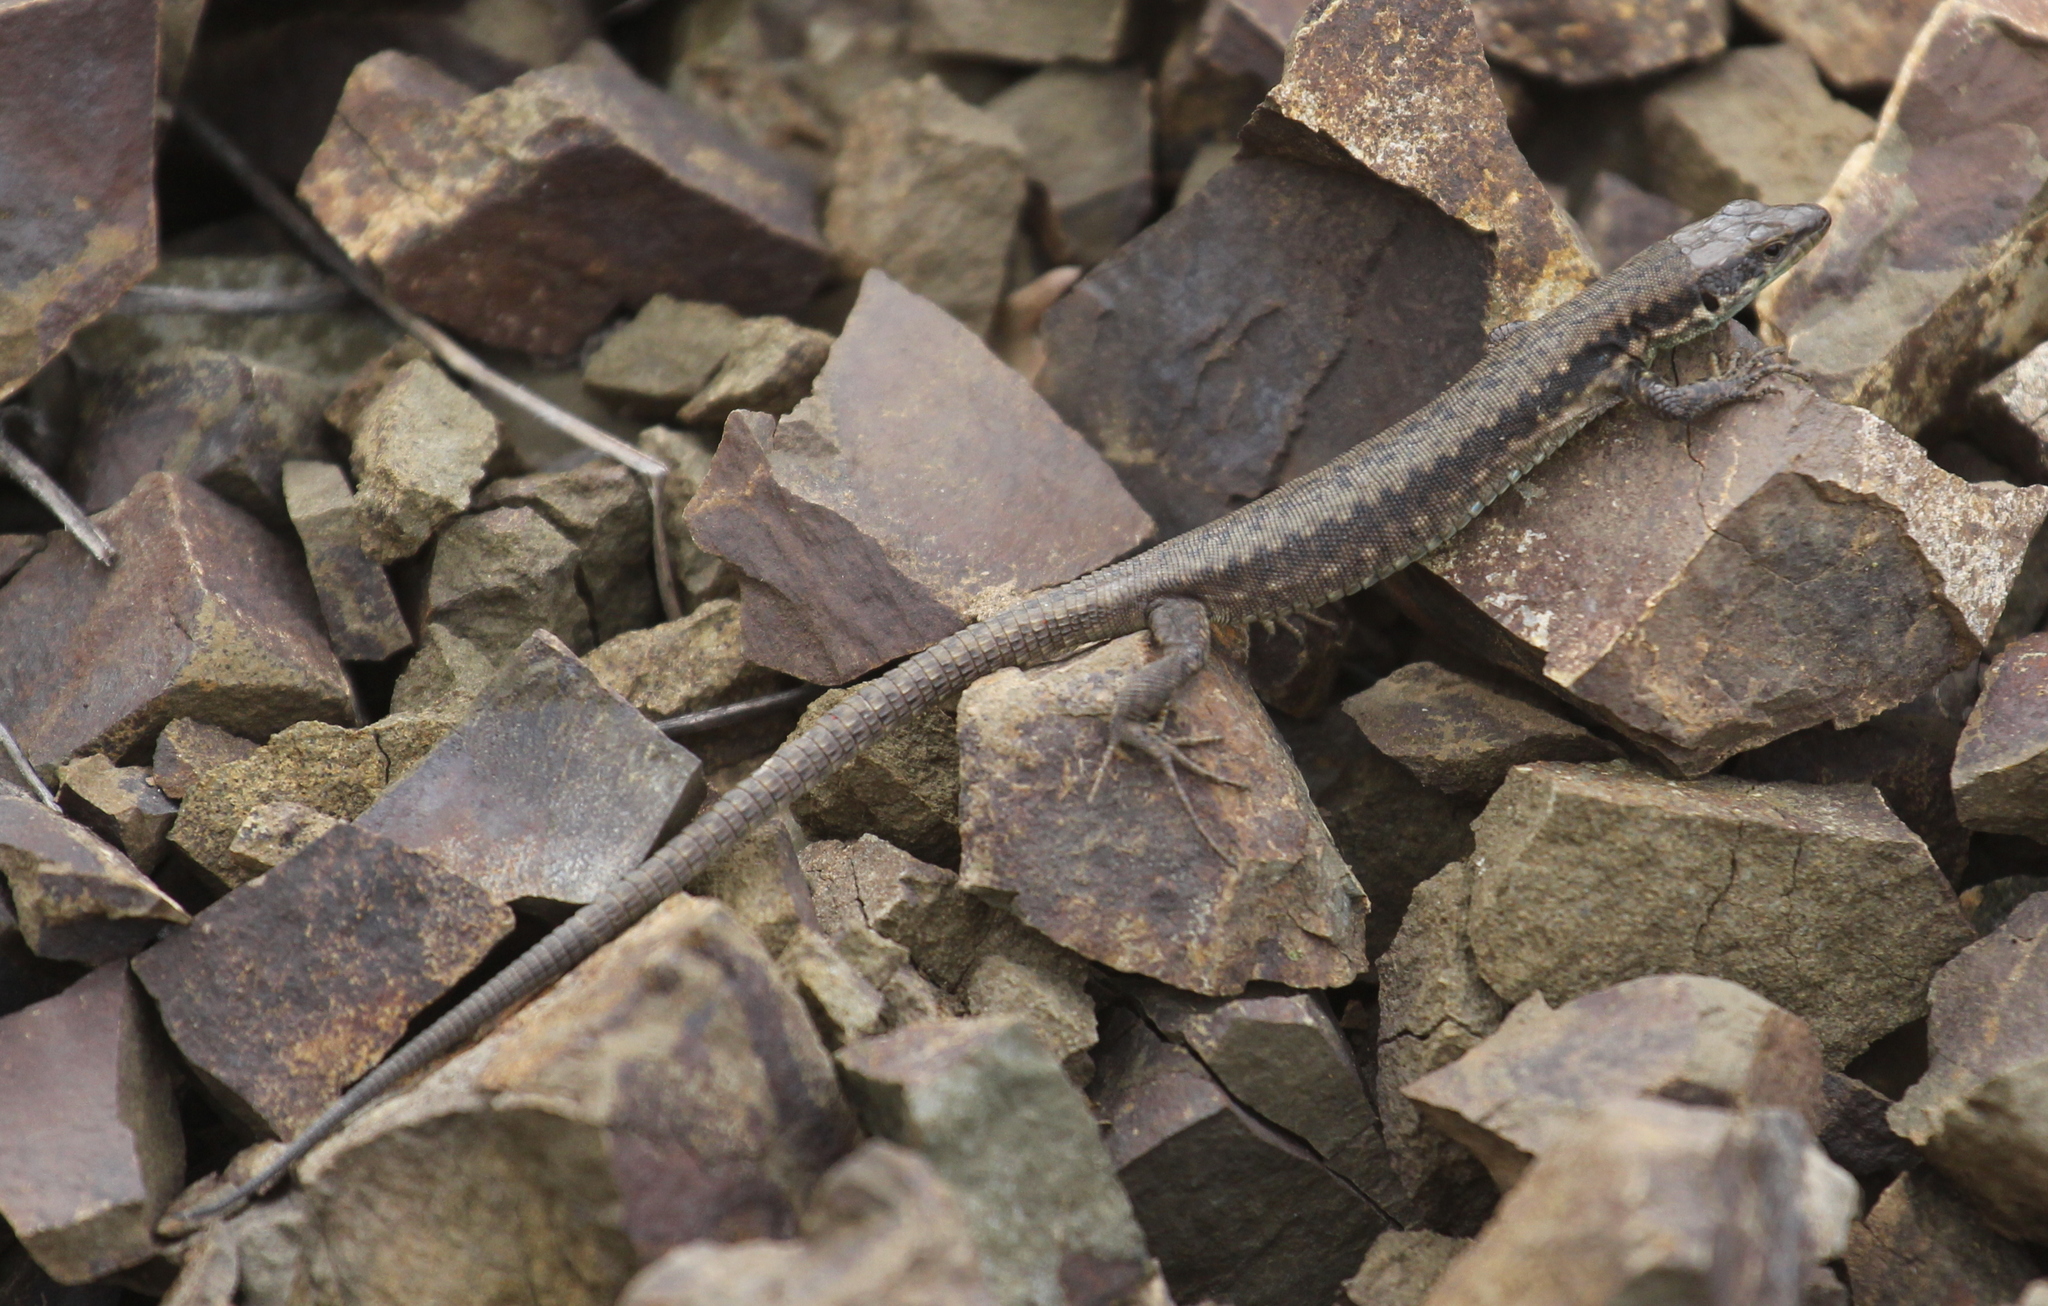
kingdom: Animalia
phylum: Chordata
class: Squamata
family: Lacertidae
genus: Darevskia
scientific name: Darevskia raddei
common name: Radde's lizard
